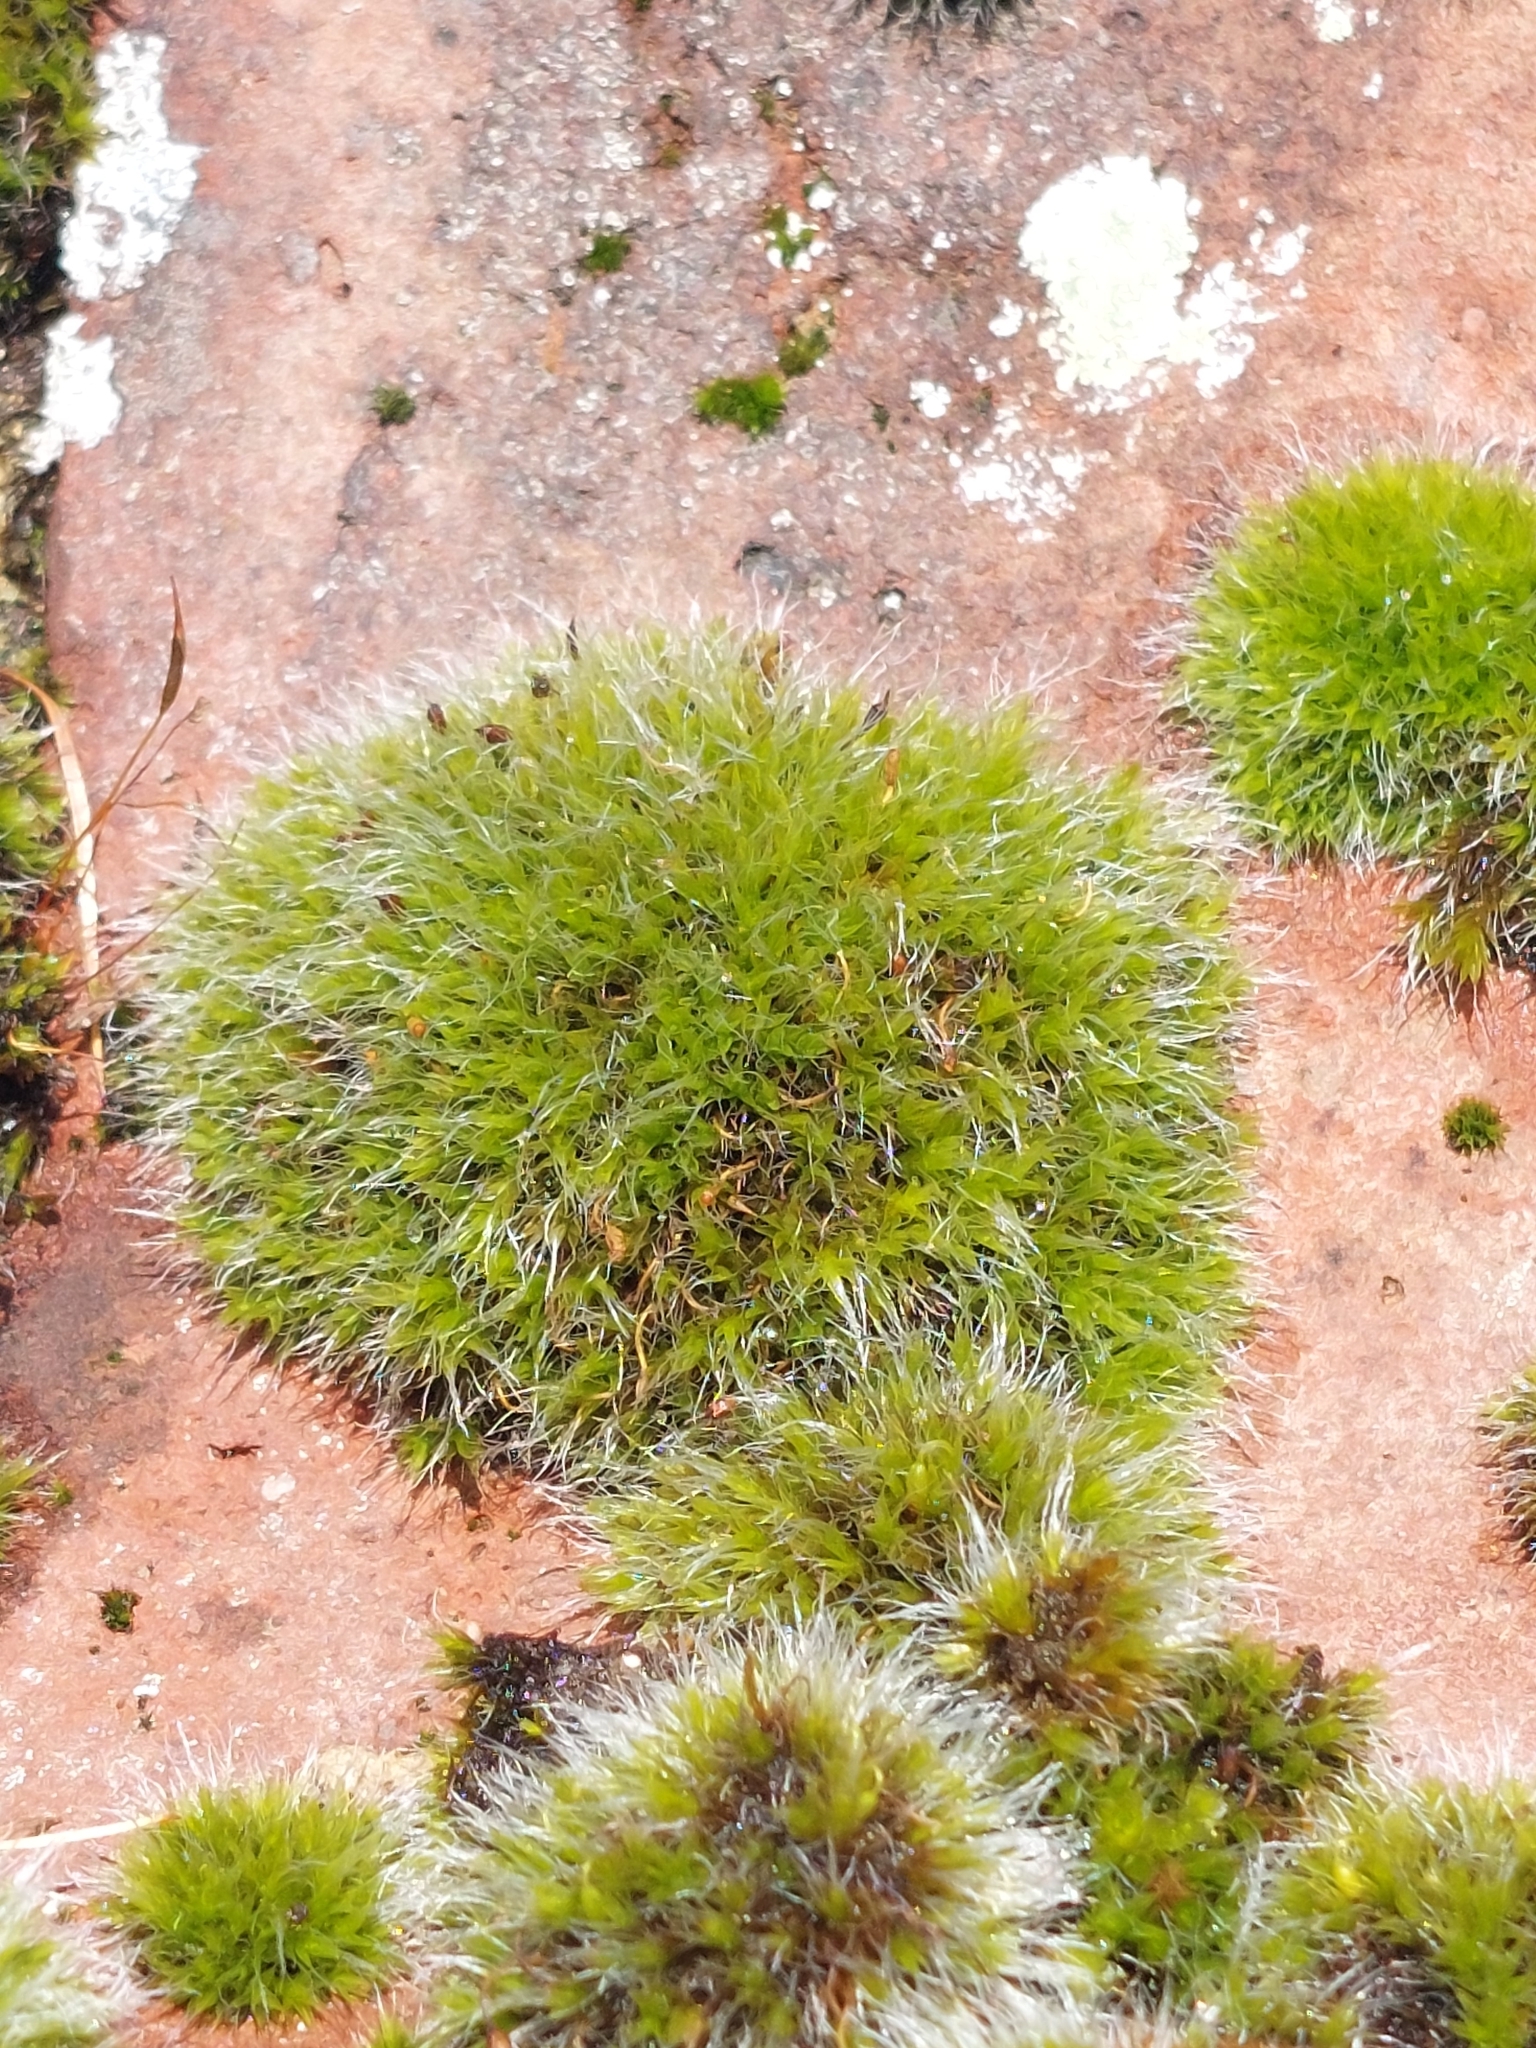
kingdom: Plantae
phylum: Bryophyta
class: Bryopsida
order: Grimmiales
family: Grimmiaceae
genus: Grimmia
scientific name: Grimmia pulvinata
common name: Grey-cushioned grimmia
